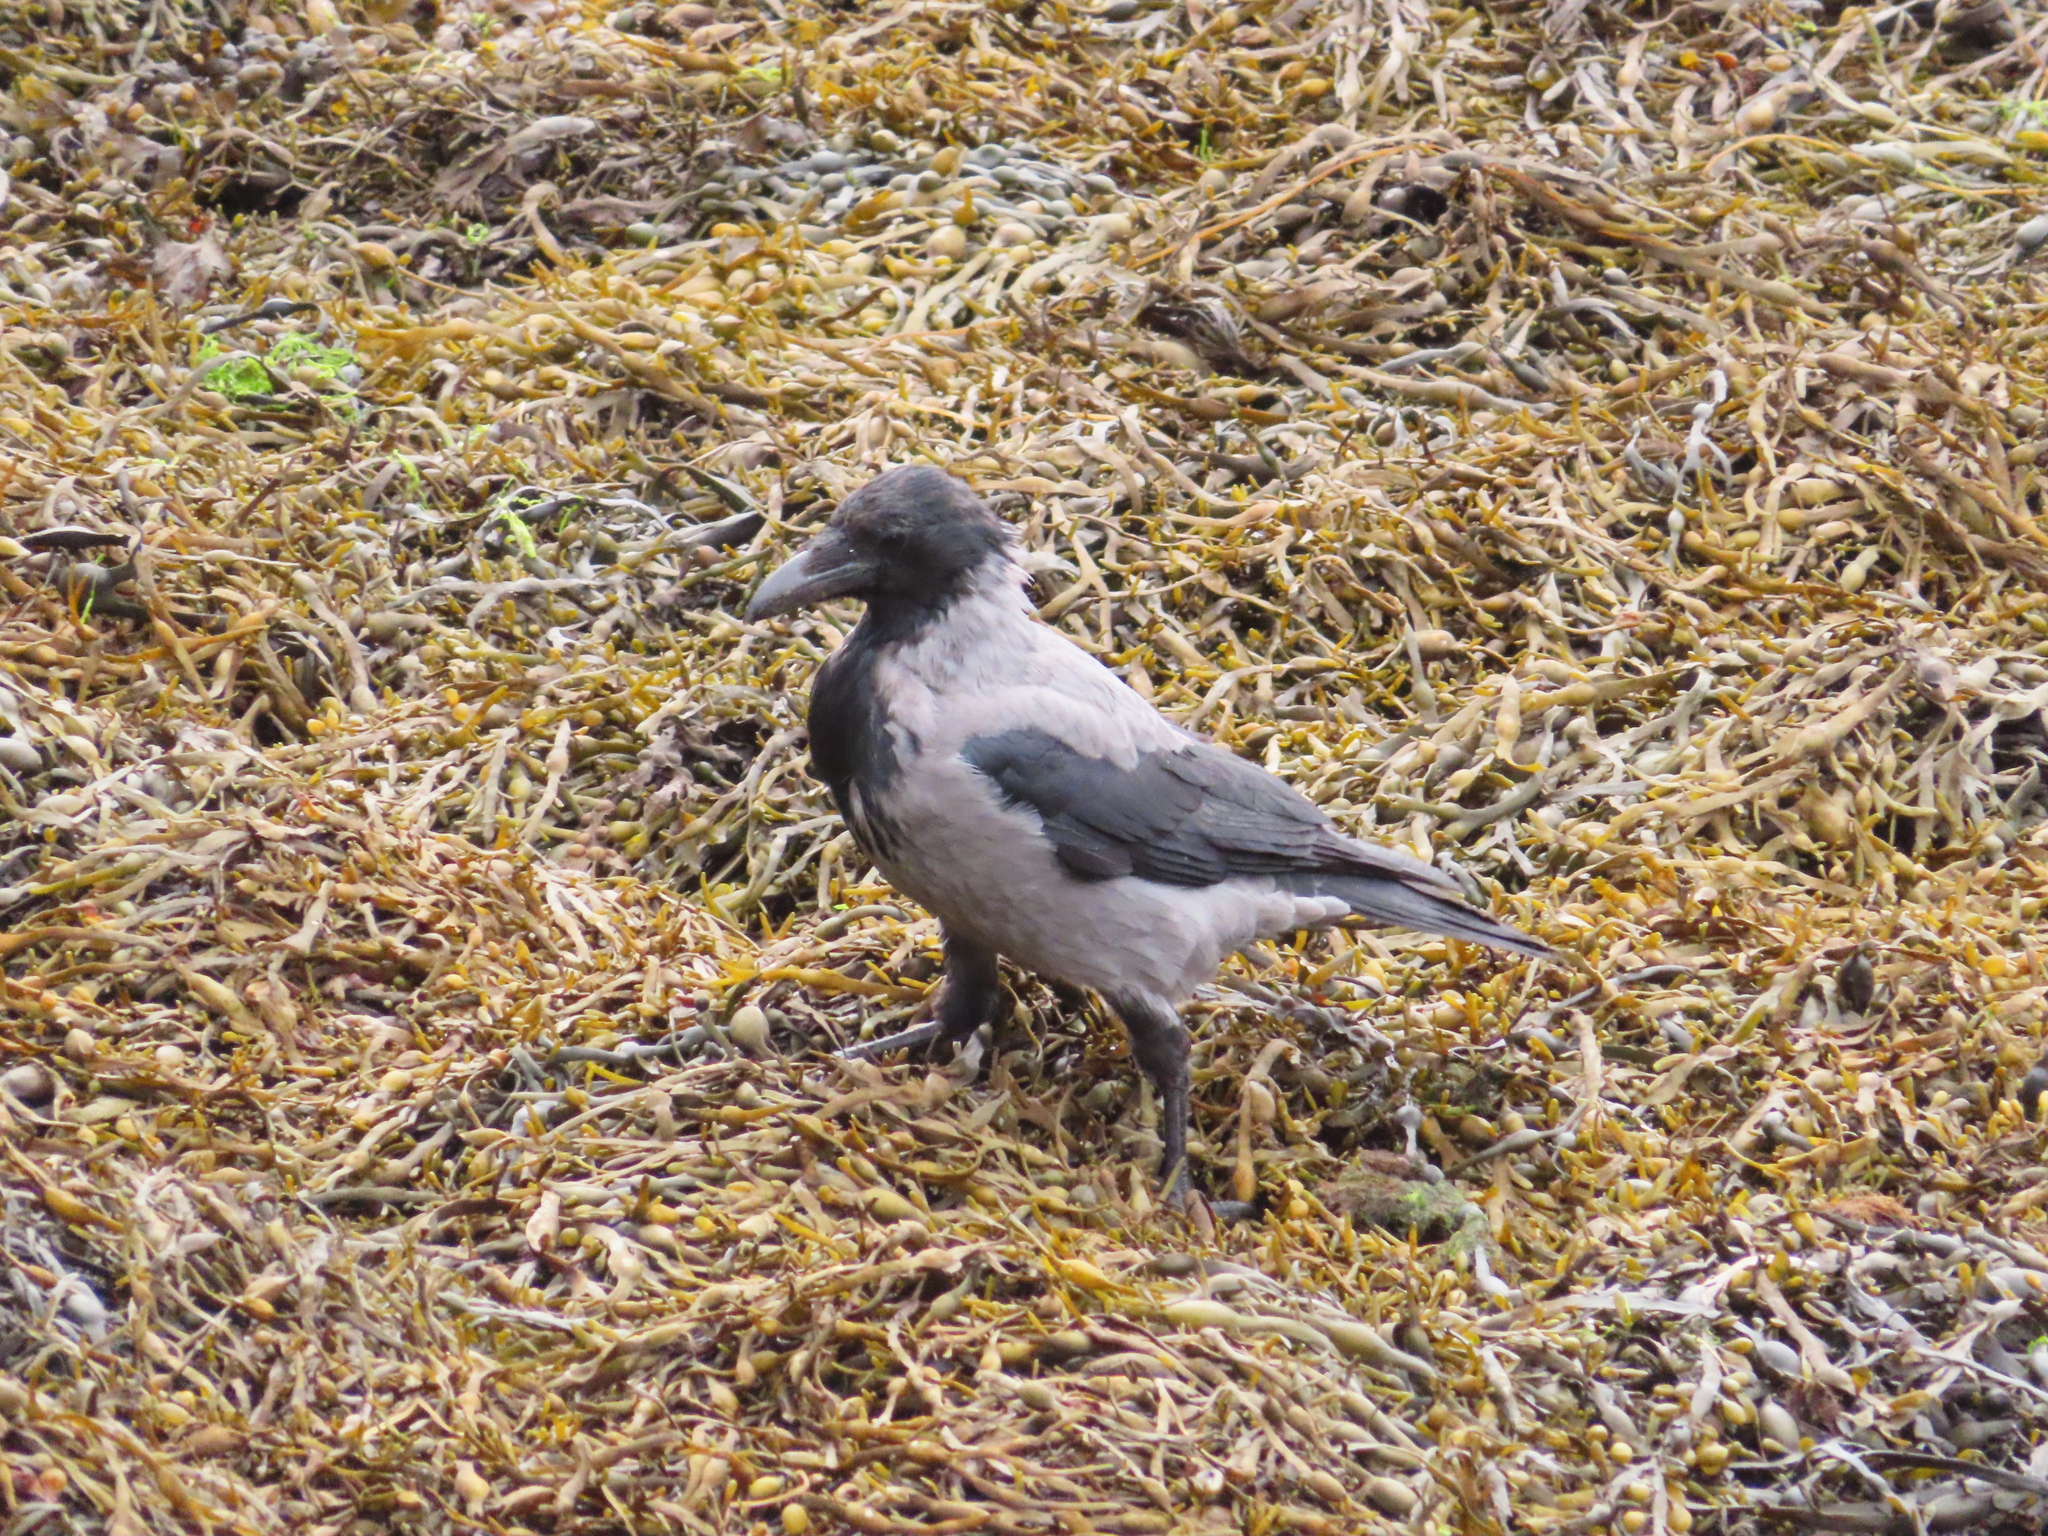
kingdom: Animalia
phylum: Chordata
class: Aves
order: Passeriformes
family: Corvidae
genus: Corvus
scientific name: Corvus cornix
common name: Hooded crow
